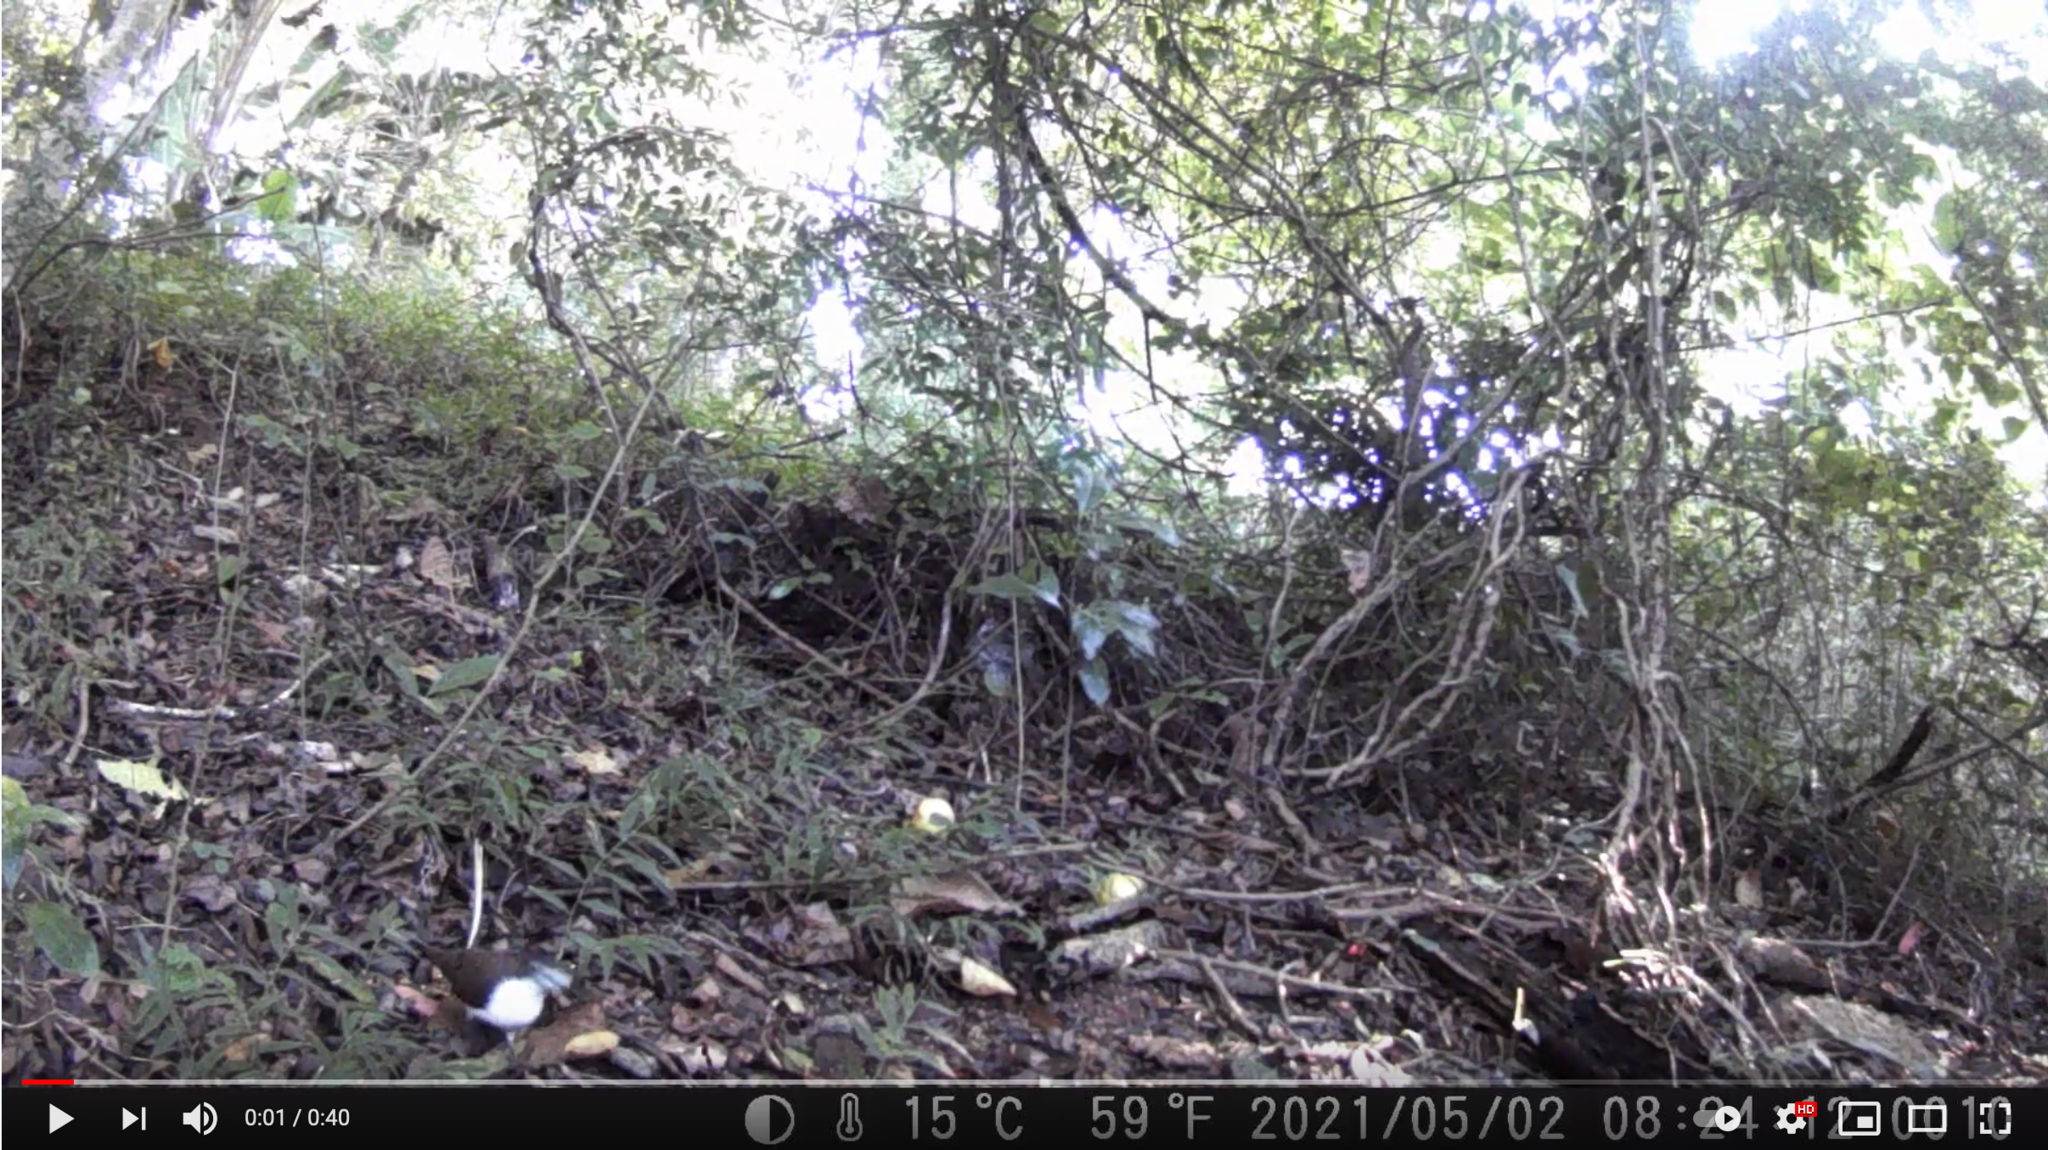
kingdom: Animalia
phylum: Chordata
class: Aves
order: Columbiformes
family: Columbidae
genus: Turtur
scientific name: Turtur tympanistria
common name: Tambourine dove
